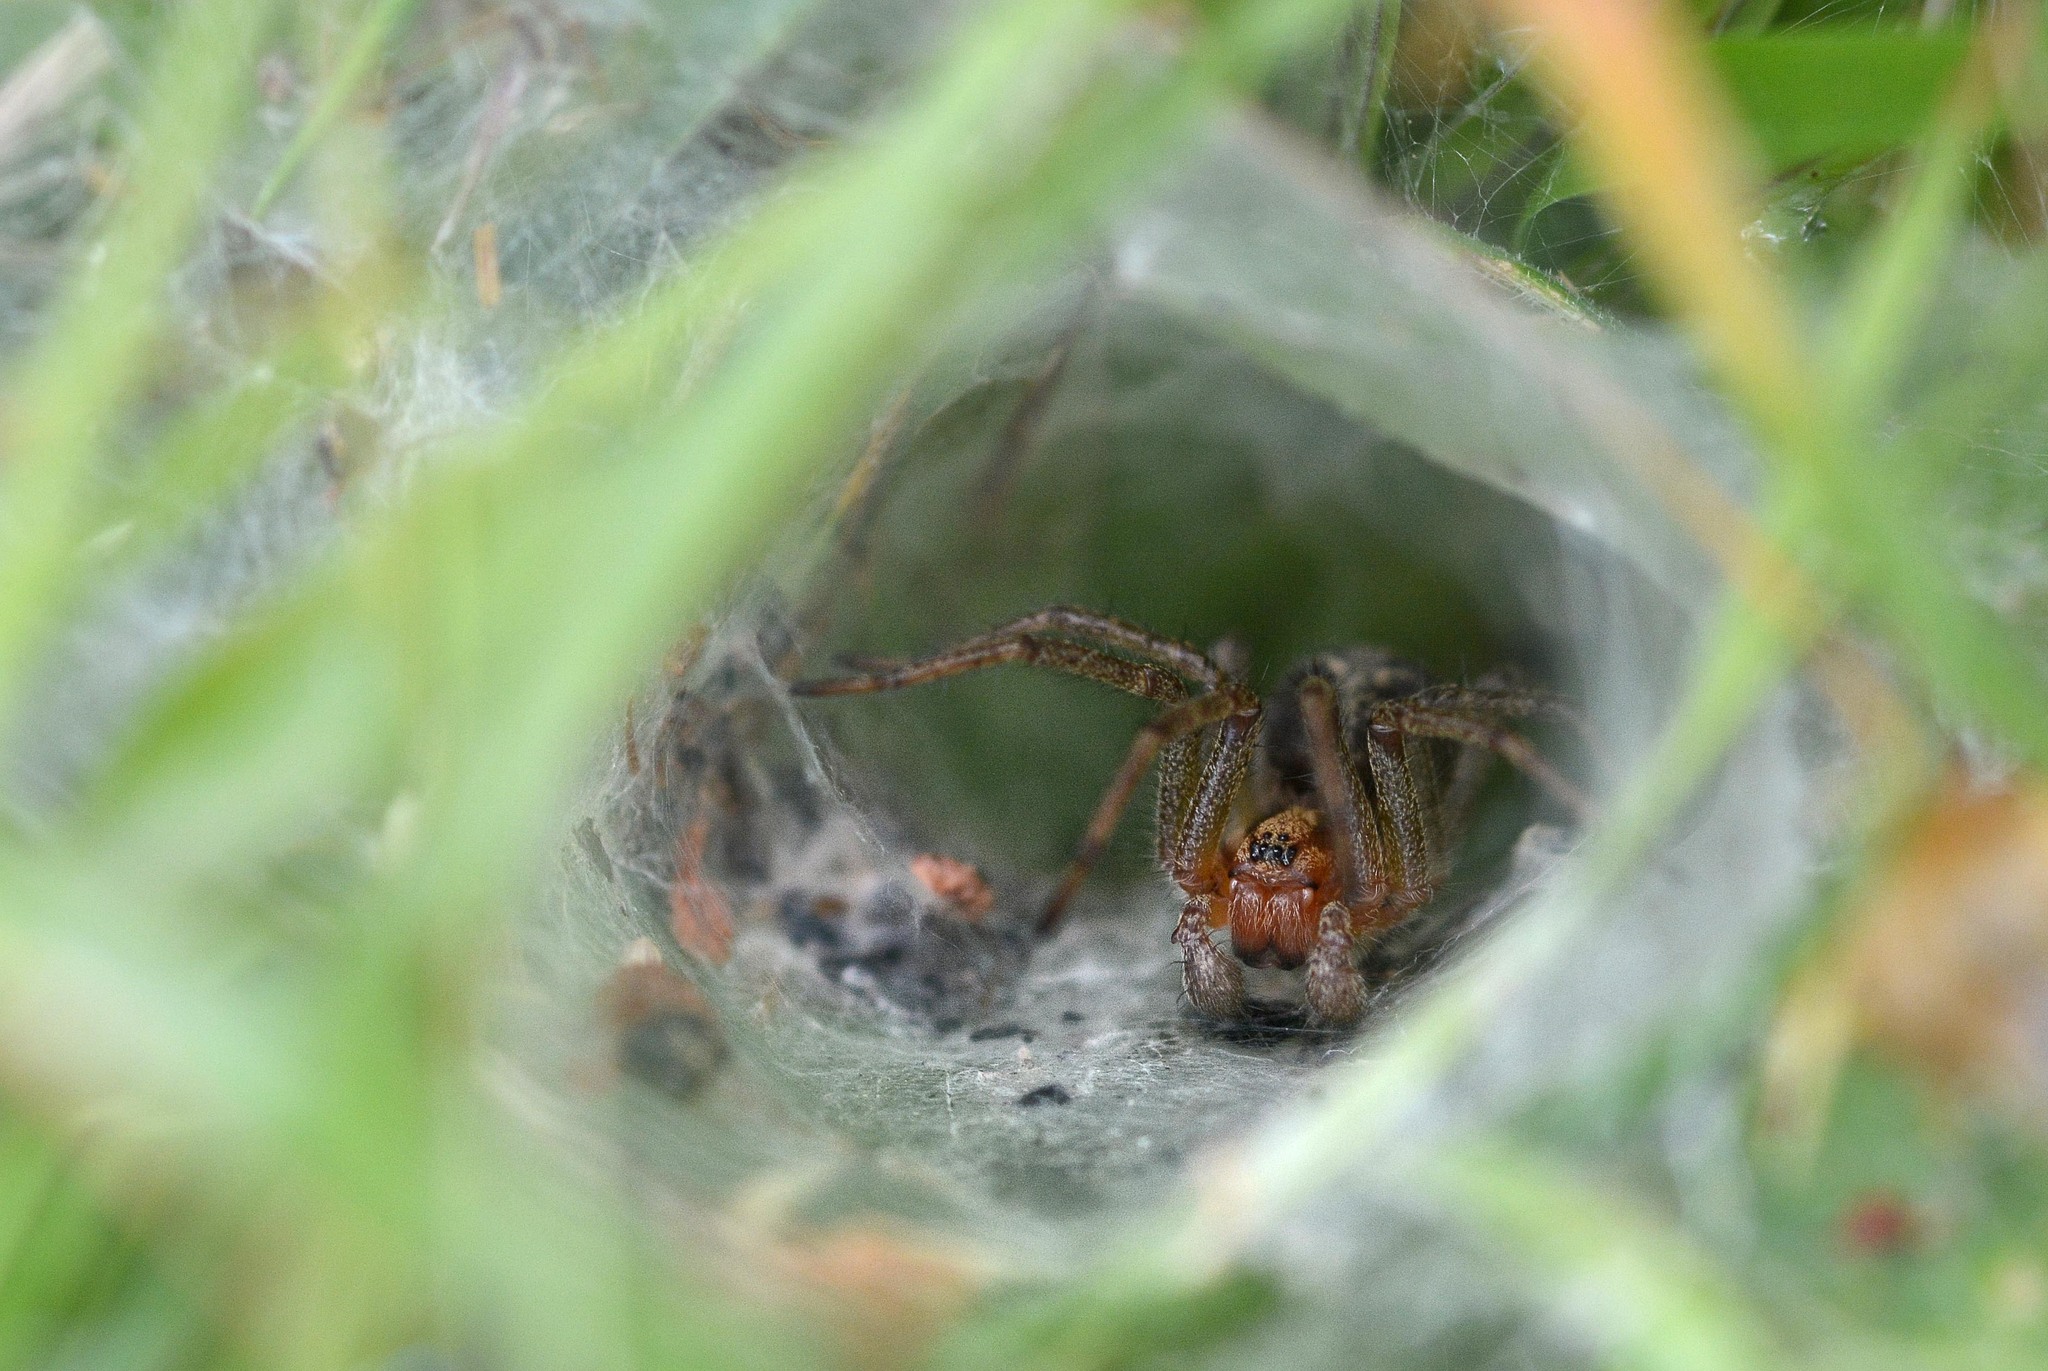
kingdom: Animalia
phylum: Arthropoda
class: Arachnida
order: Araneae
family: Agelenidae
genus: Agelena
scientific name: Agelena labyrinthica
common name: Labyrinth spider
